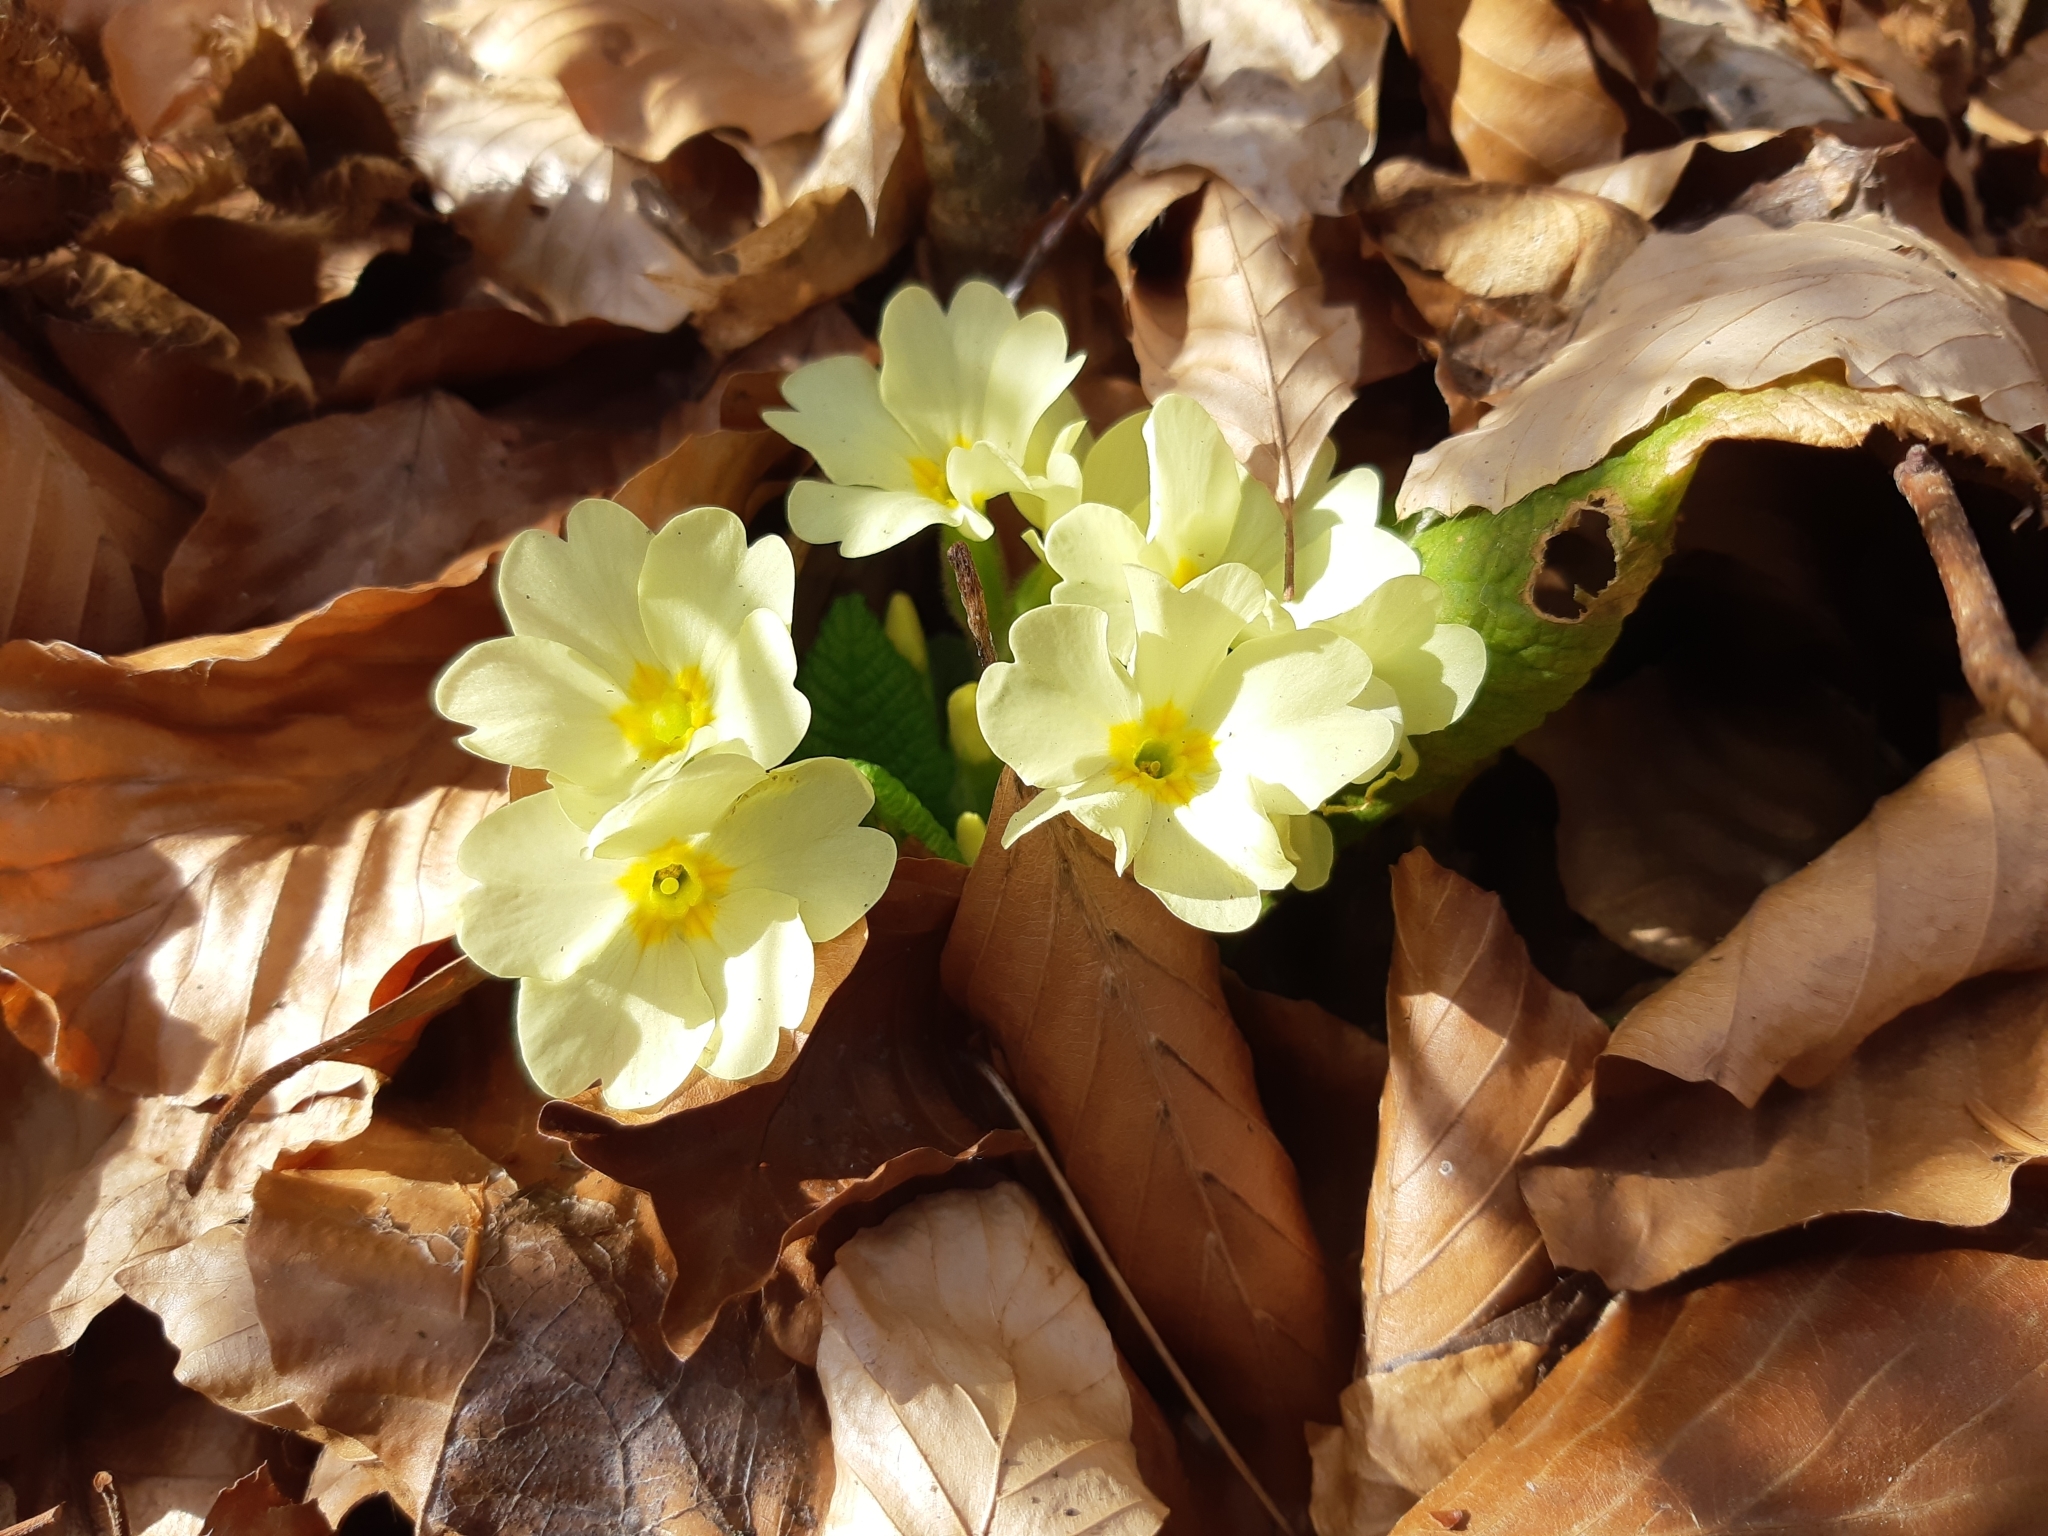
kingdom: Plantae
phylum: Tracheophyta
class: Magnoliopsida
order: Ericales
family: Primulaceae
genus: Primula
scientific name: Primula vulgaris
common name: Primrose
